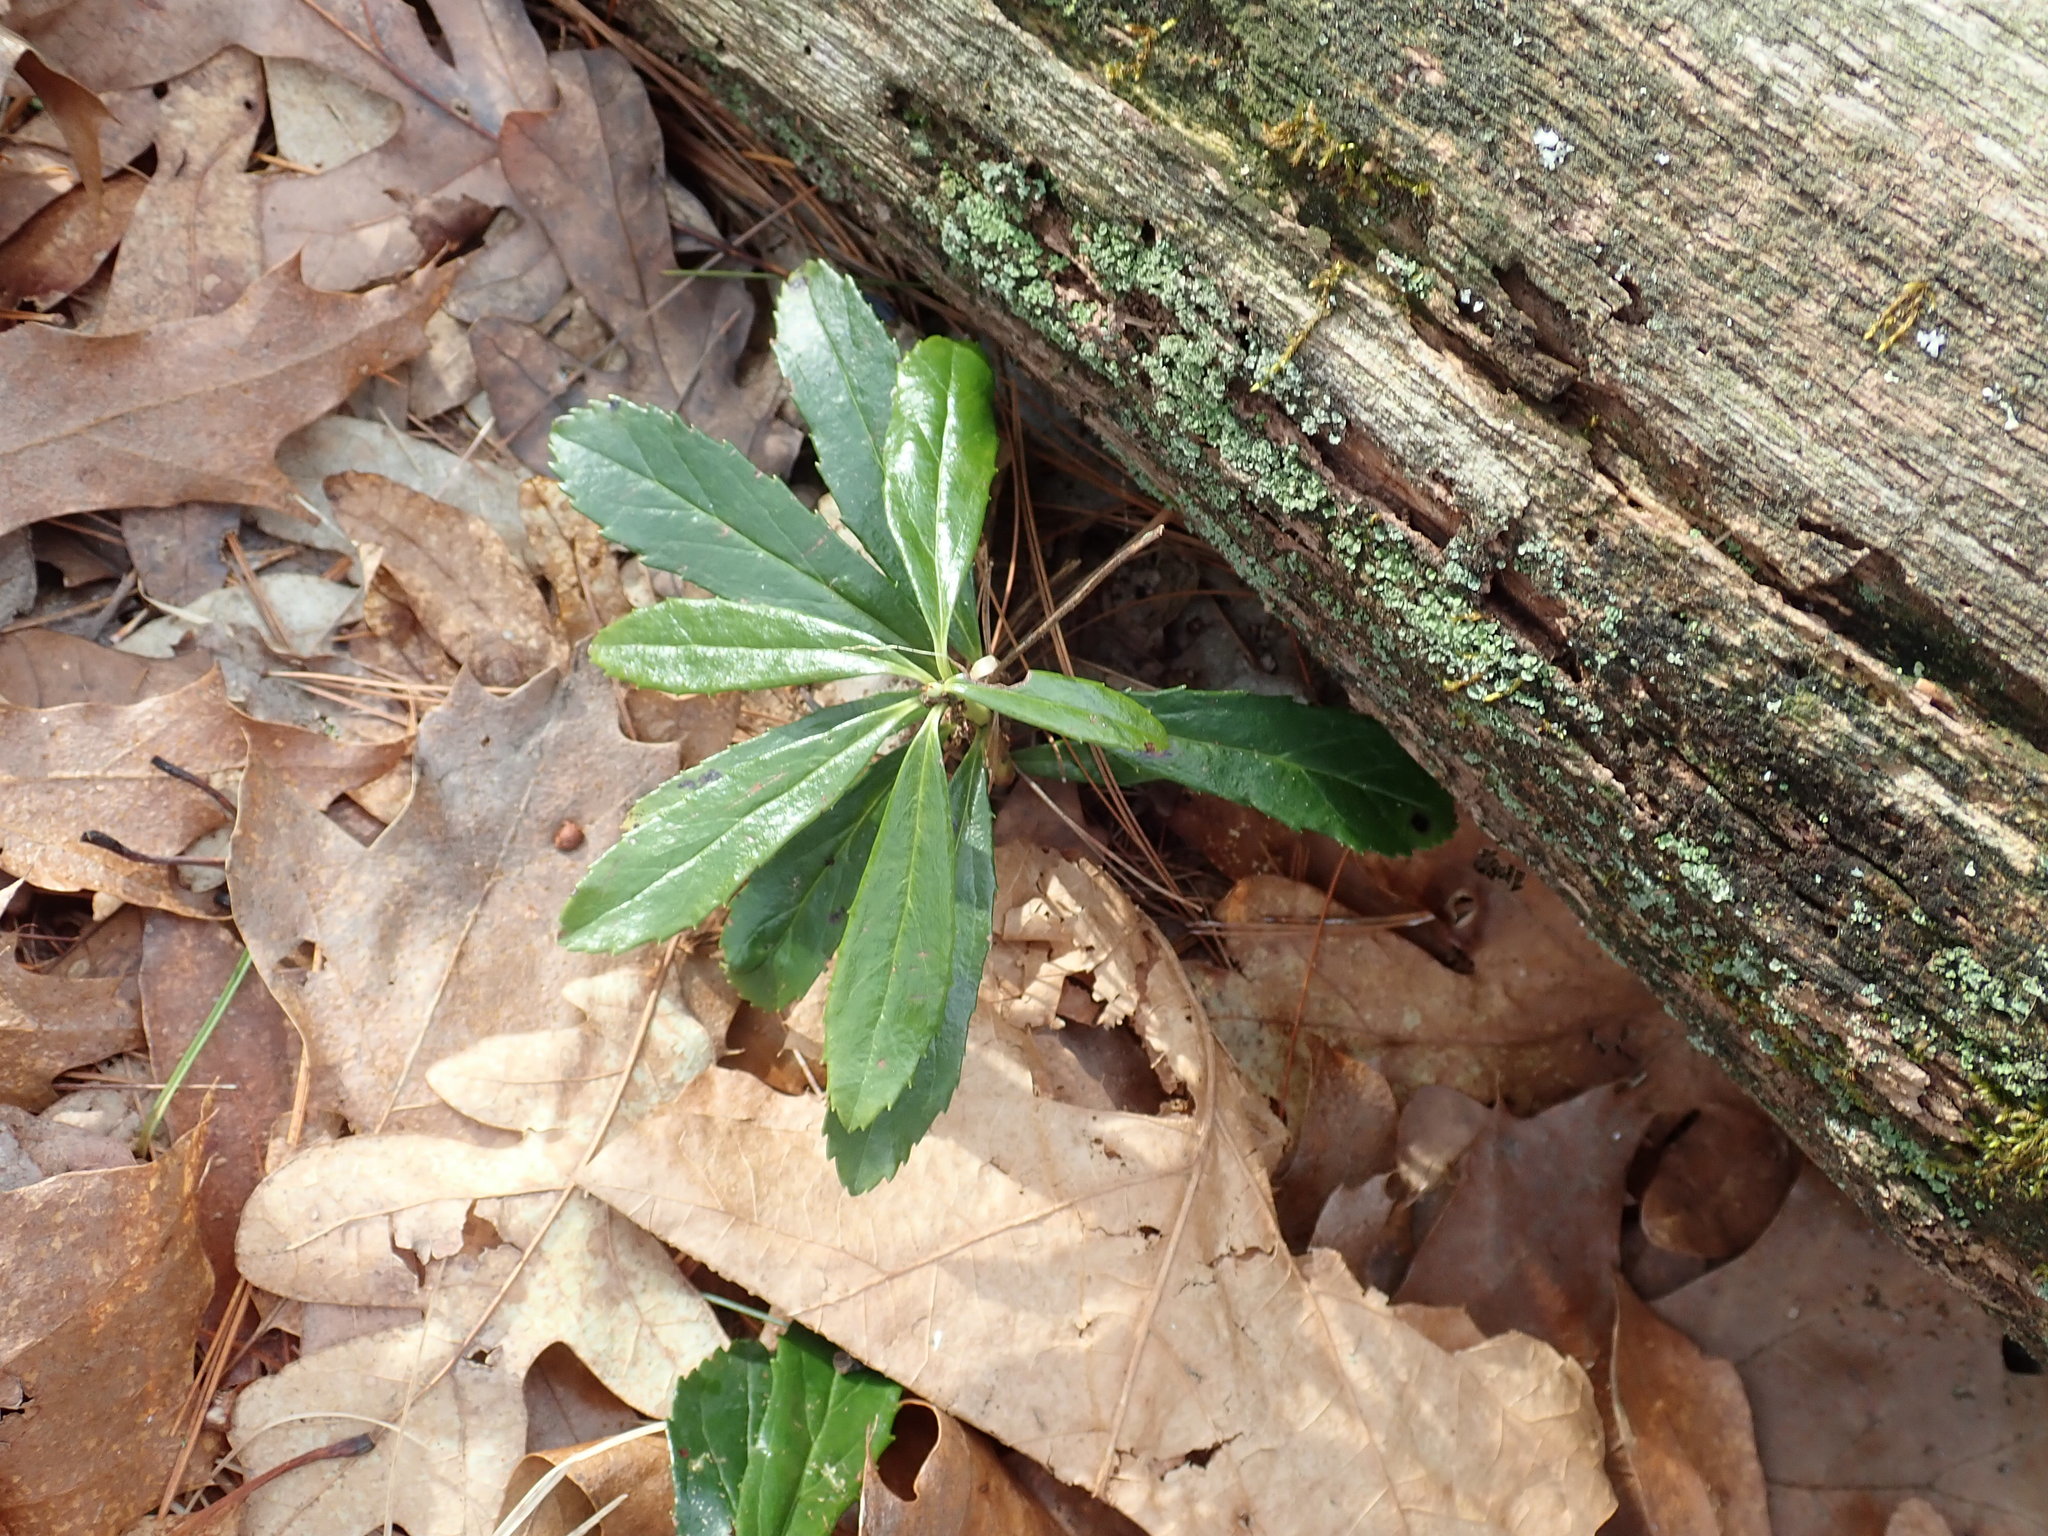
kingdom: Plantae
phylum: Tracheophyta
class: Magnoliopsida
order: Ericales
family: Ericaceae
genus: Chimaphila
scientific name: Chimaphila umbellata
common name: Pipsissewa
